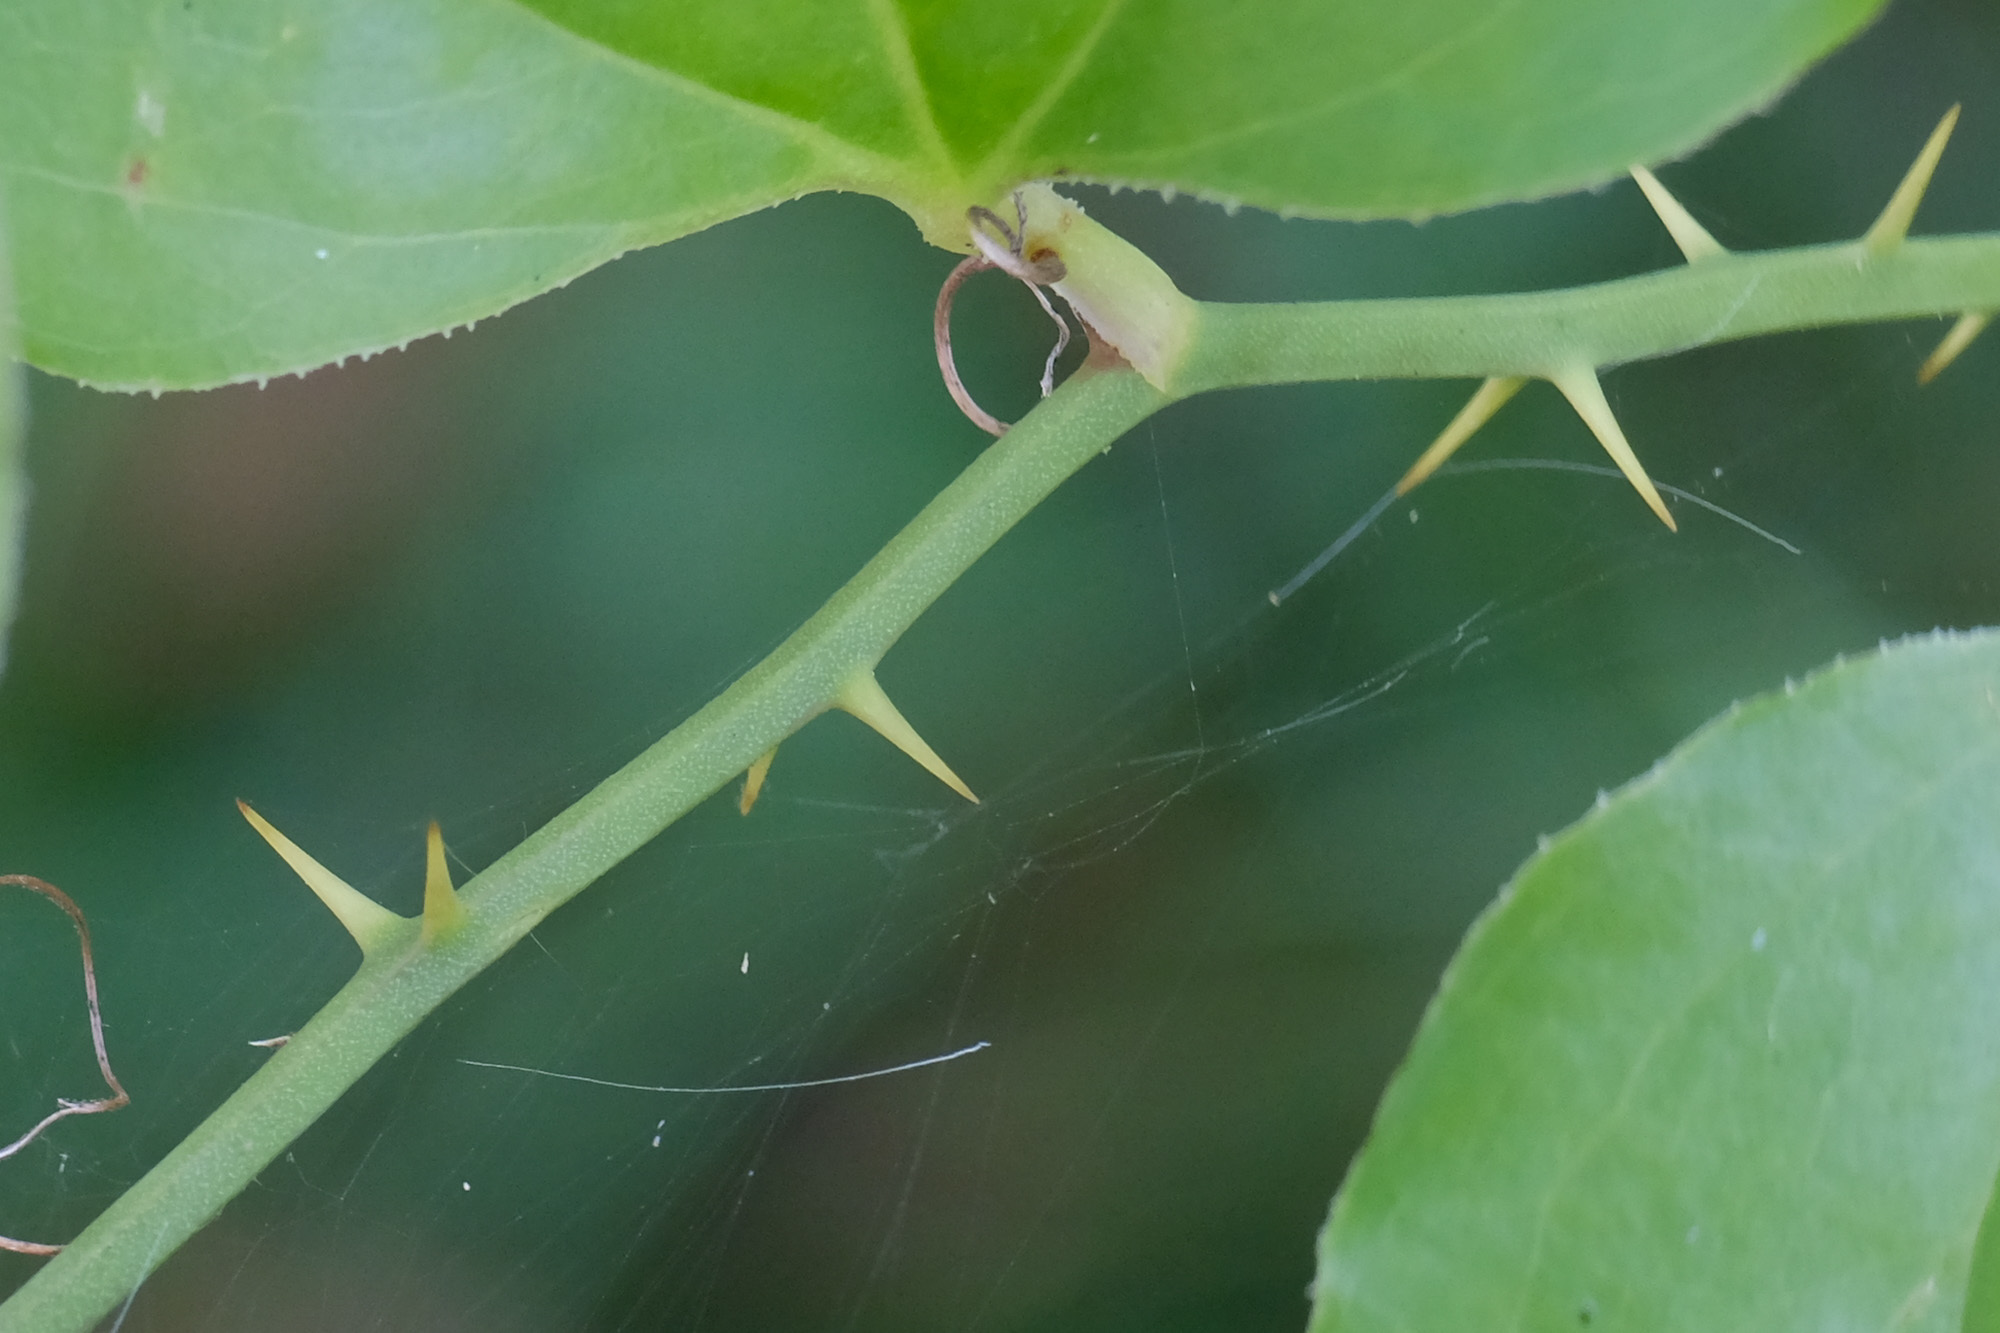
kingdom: Plantae
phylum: Tracheophyta
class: Liliopsida
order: Liliales
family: Smilacaceae
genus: Smilax
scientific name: Smilax rotundifolia
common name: Bullbriar
